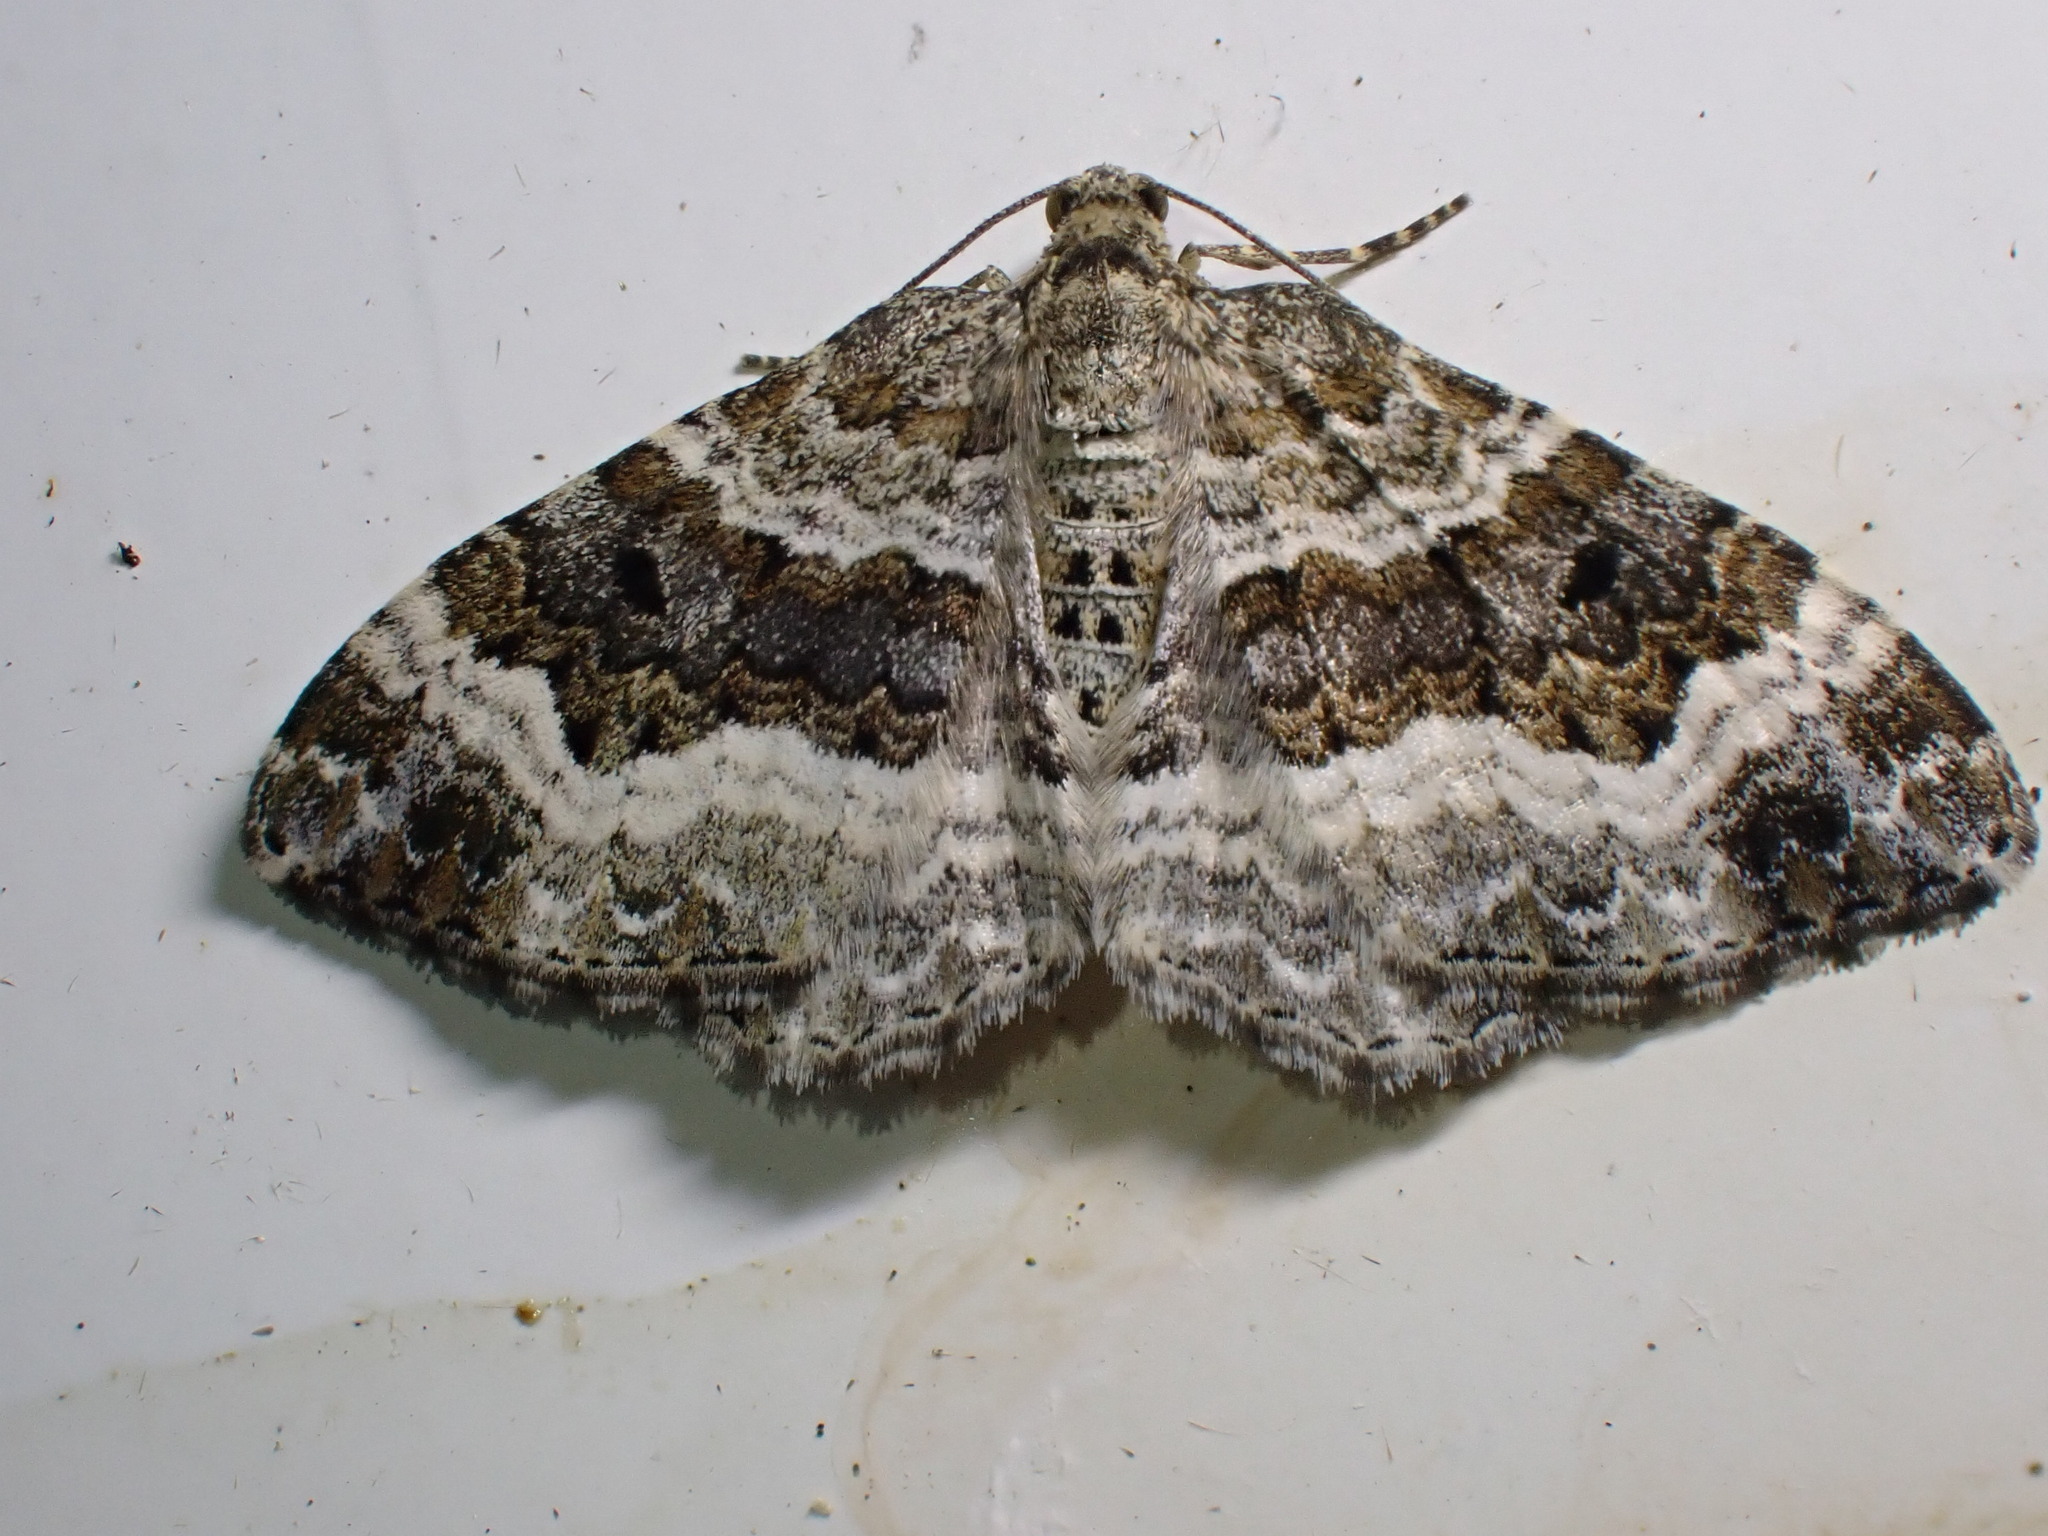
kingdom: Animalia
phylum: Arthropoda
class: Insecta
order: Lepidoptera
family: Geometridae
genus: Epirrhoe
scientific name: Epirrhoe alternata
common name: Common carpet
